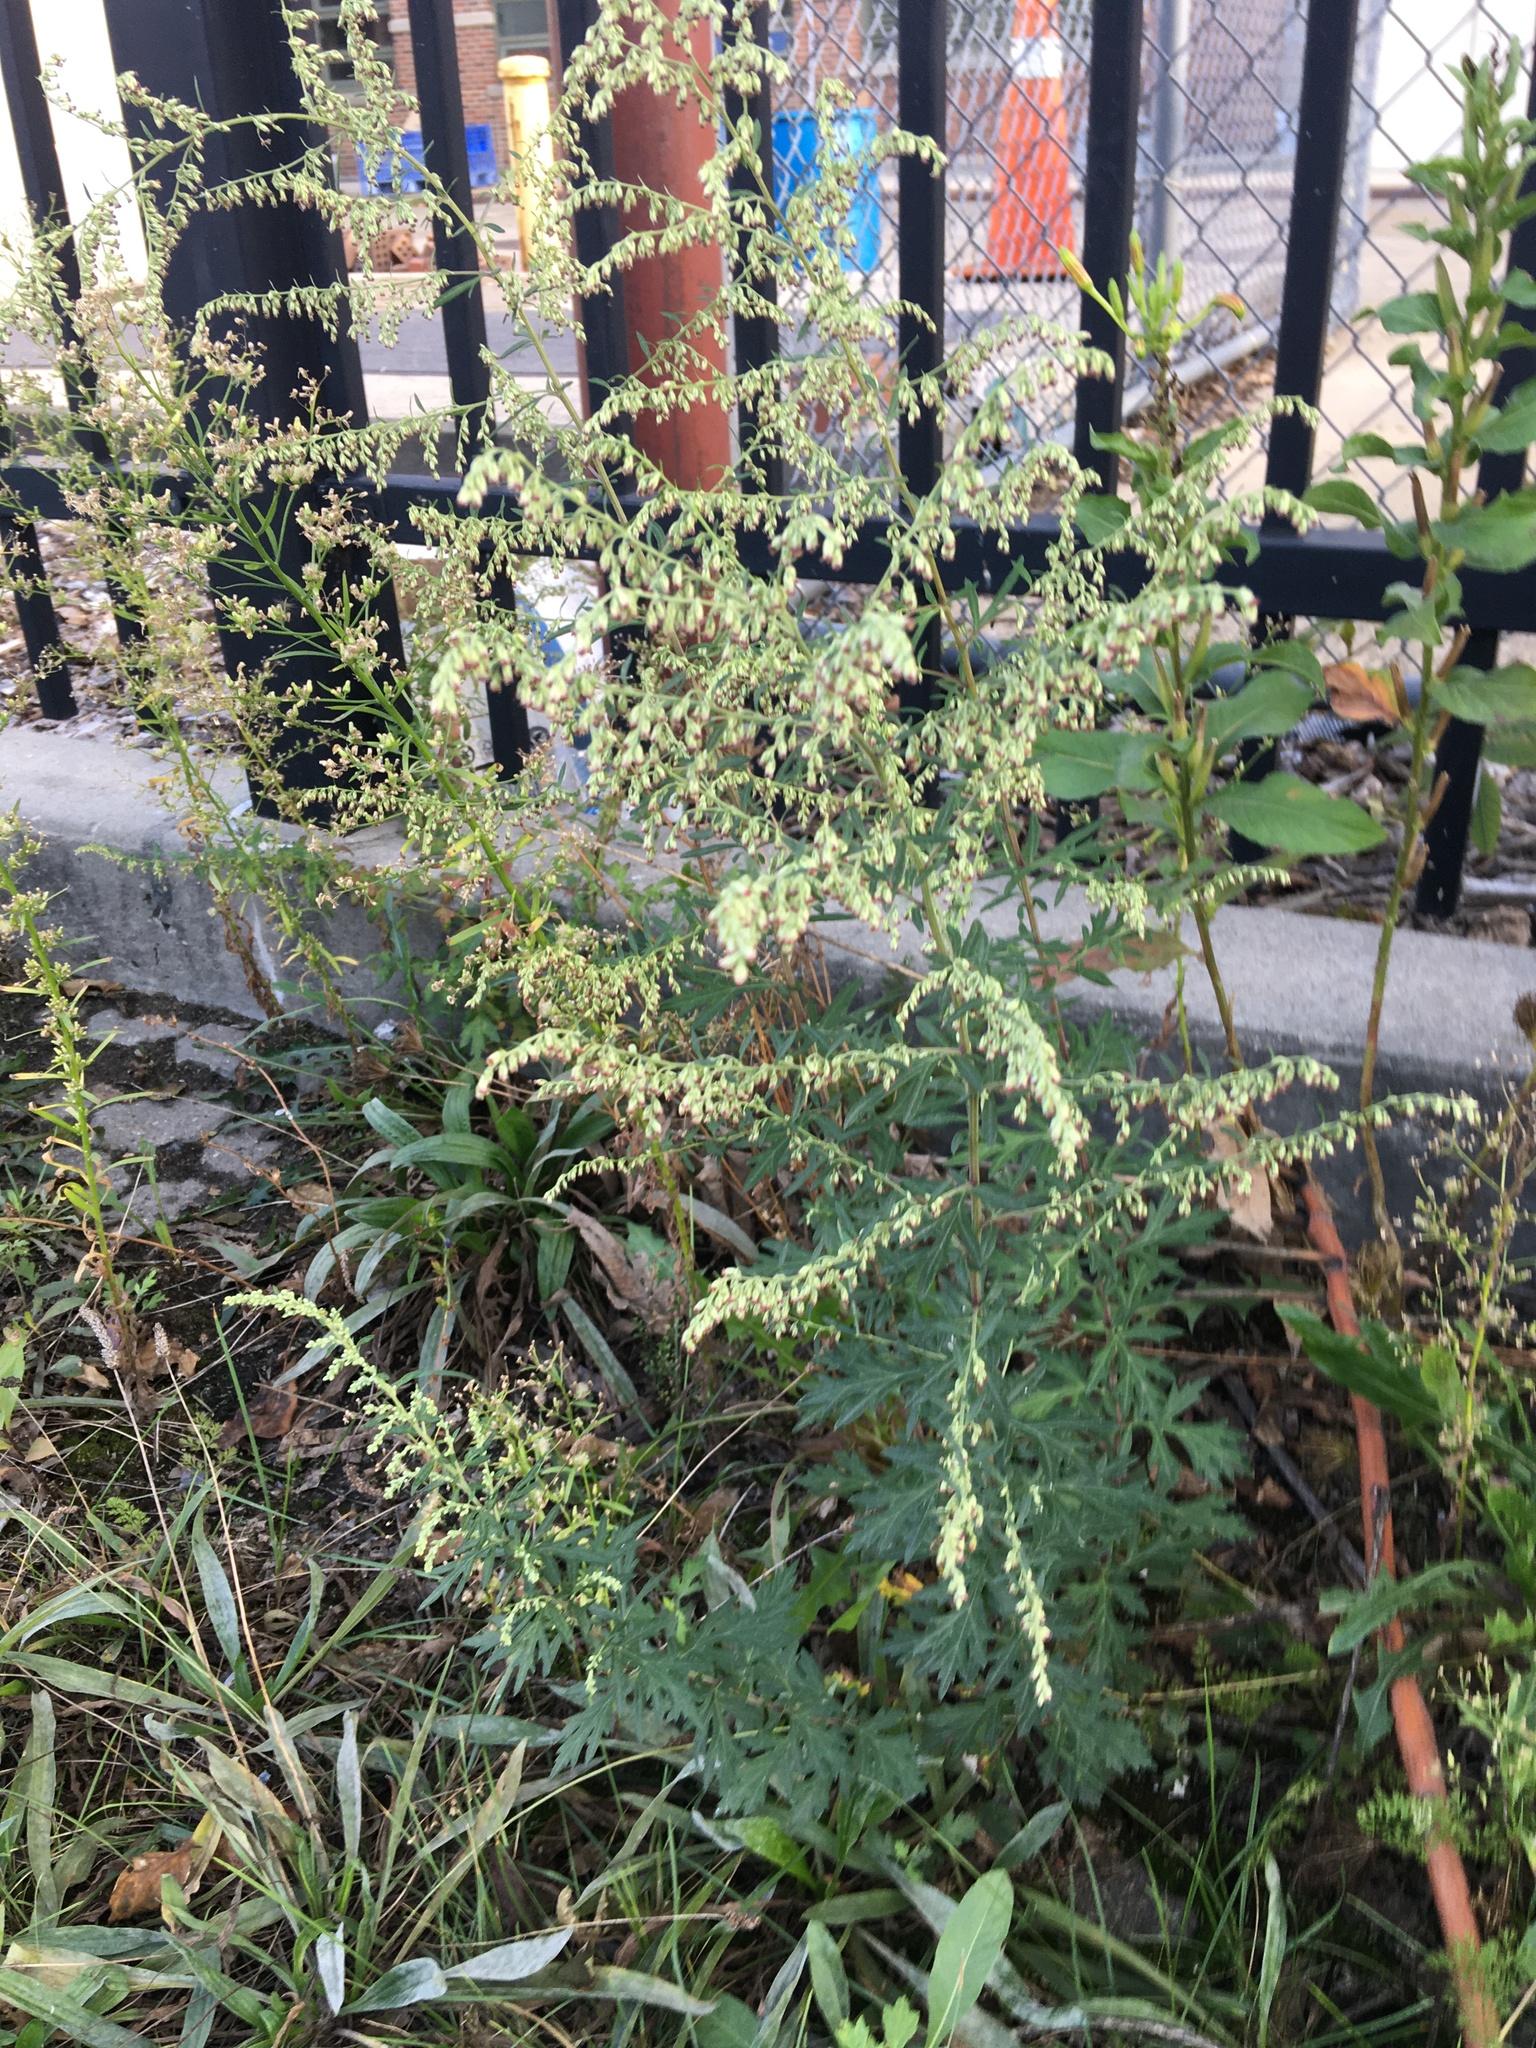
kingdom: Plantae
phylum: Tracheophyta
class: Magnoliopsida
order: Asterales
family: Asteraceae
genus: Artemisia
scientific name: Artemisia vulgaris
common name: Mugwort
